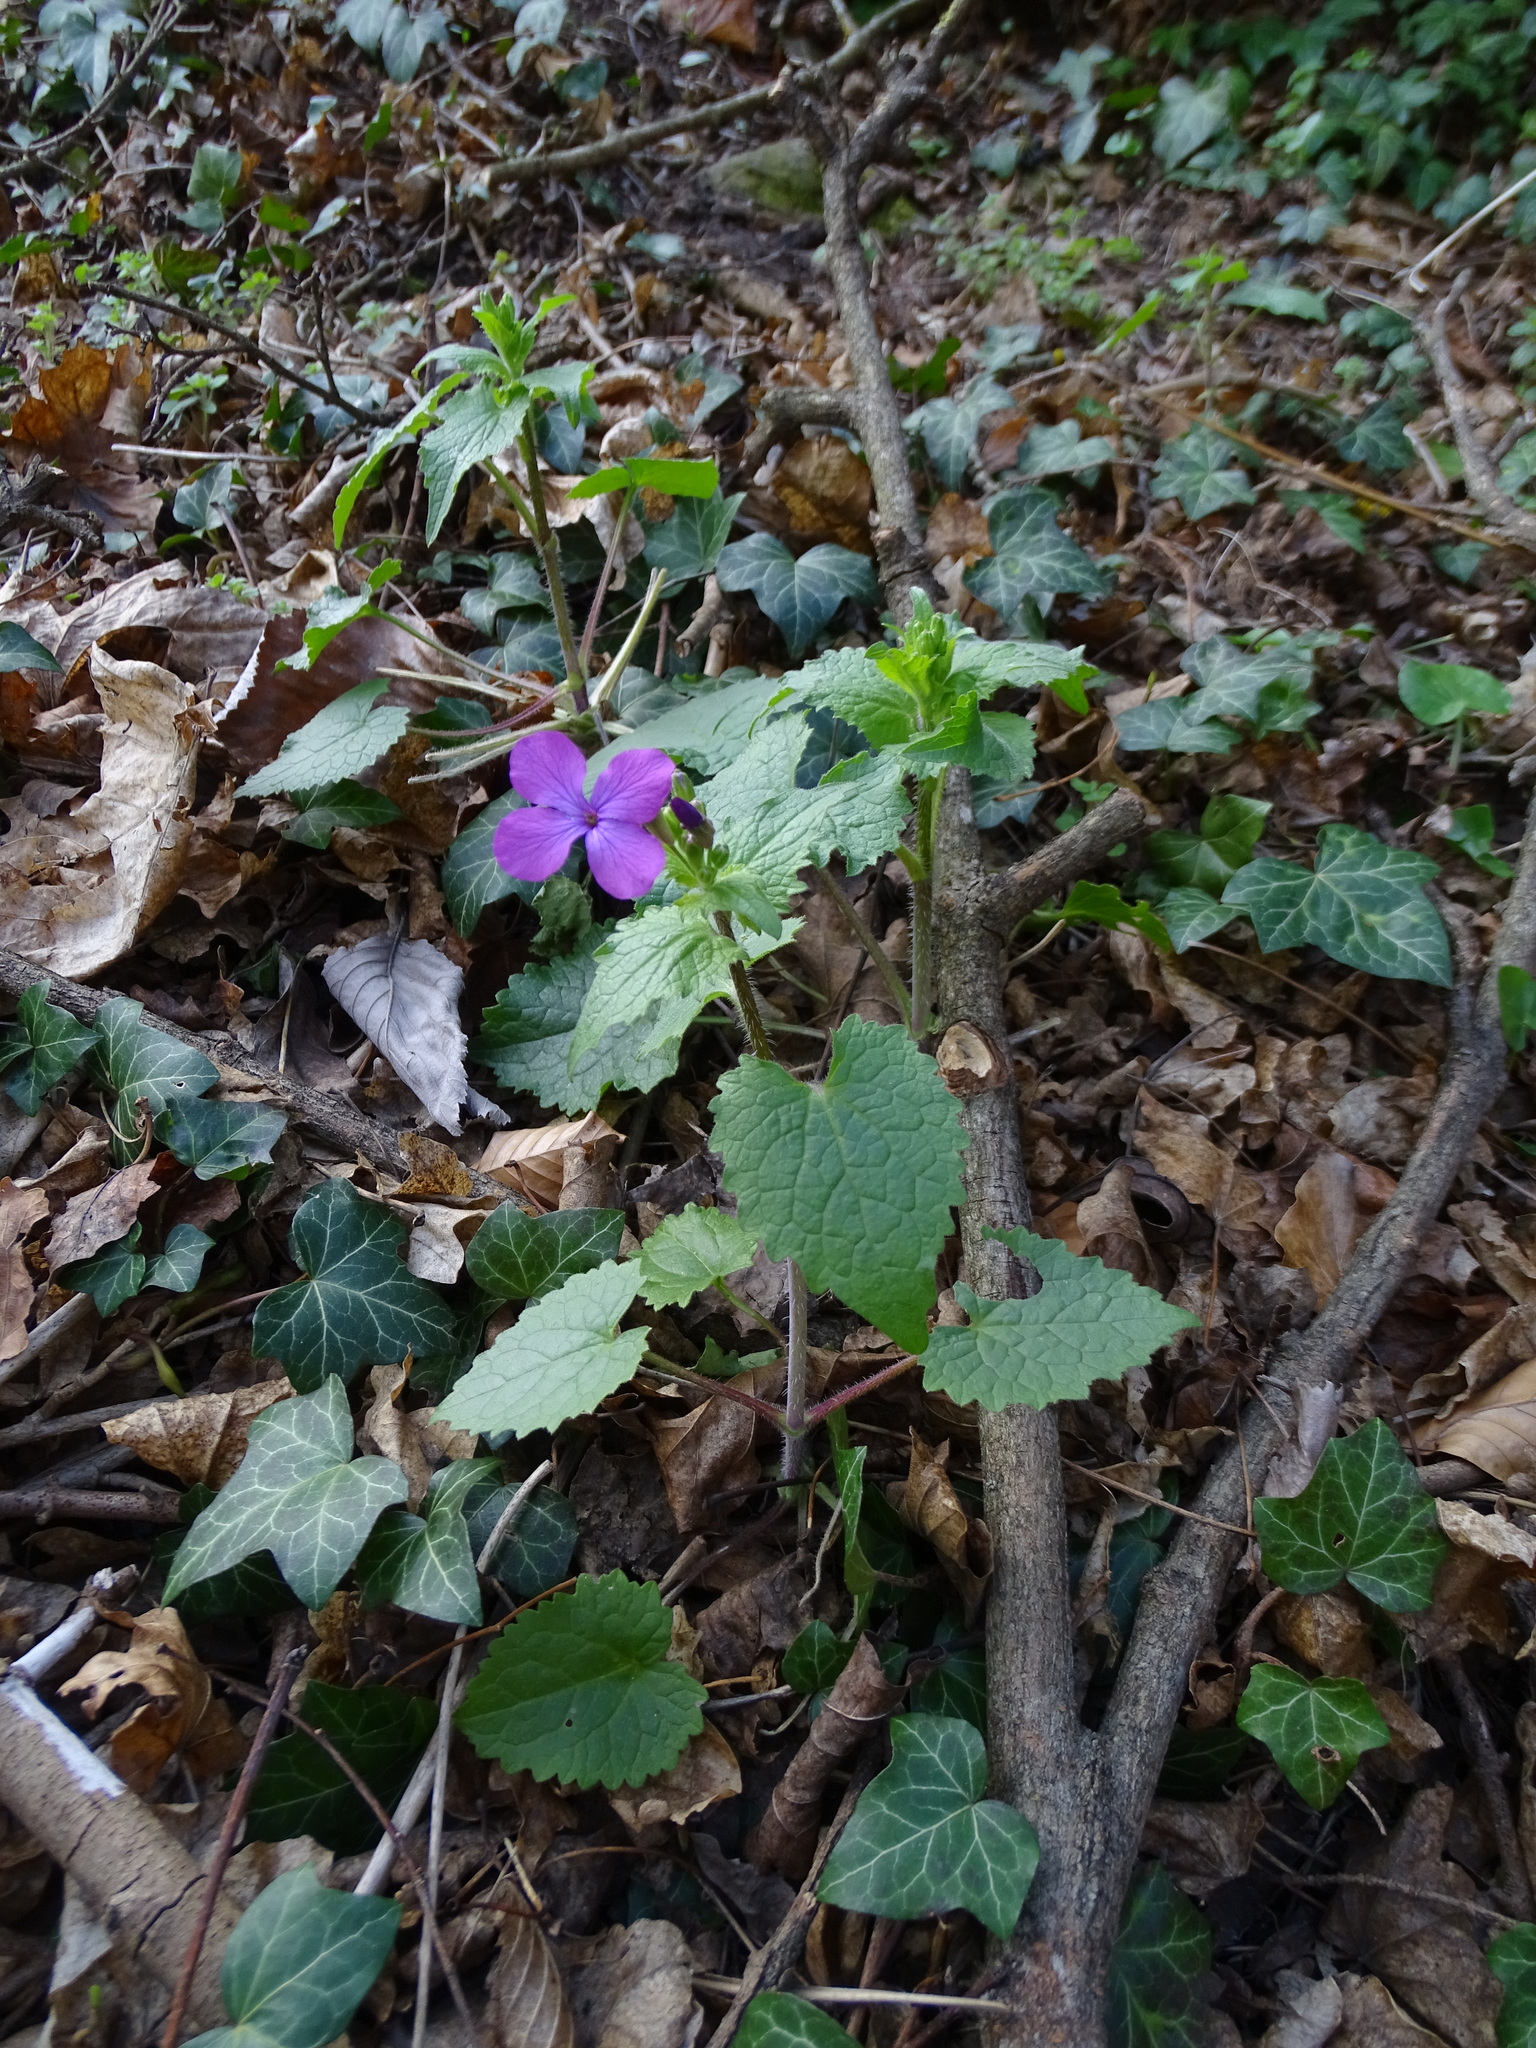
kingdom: Plantae
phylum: Tracheophyta
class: Magnoliopsida
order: Brassicales
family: Brassicaceae
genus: Lunaria
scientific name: Lunaria annua
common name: Honesty
